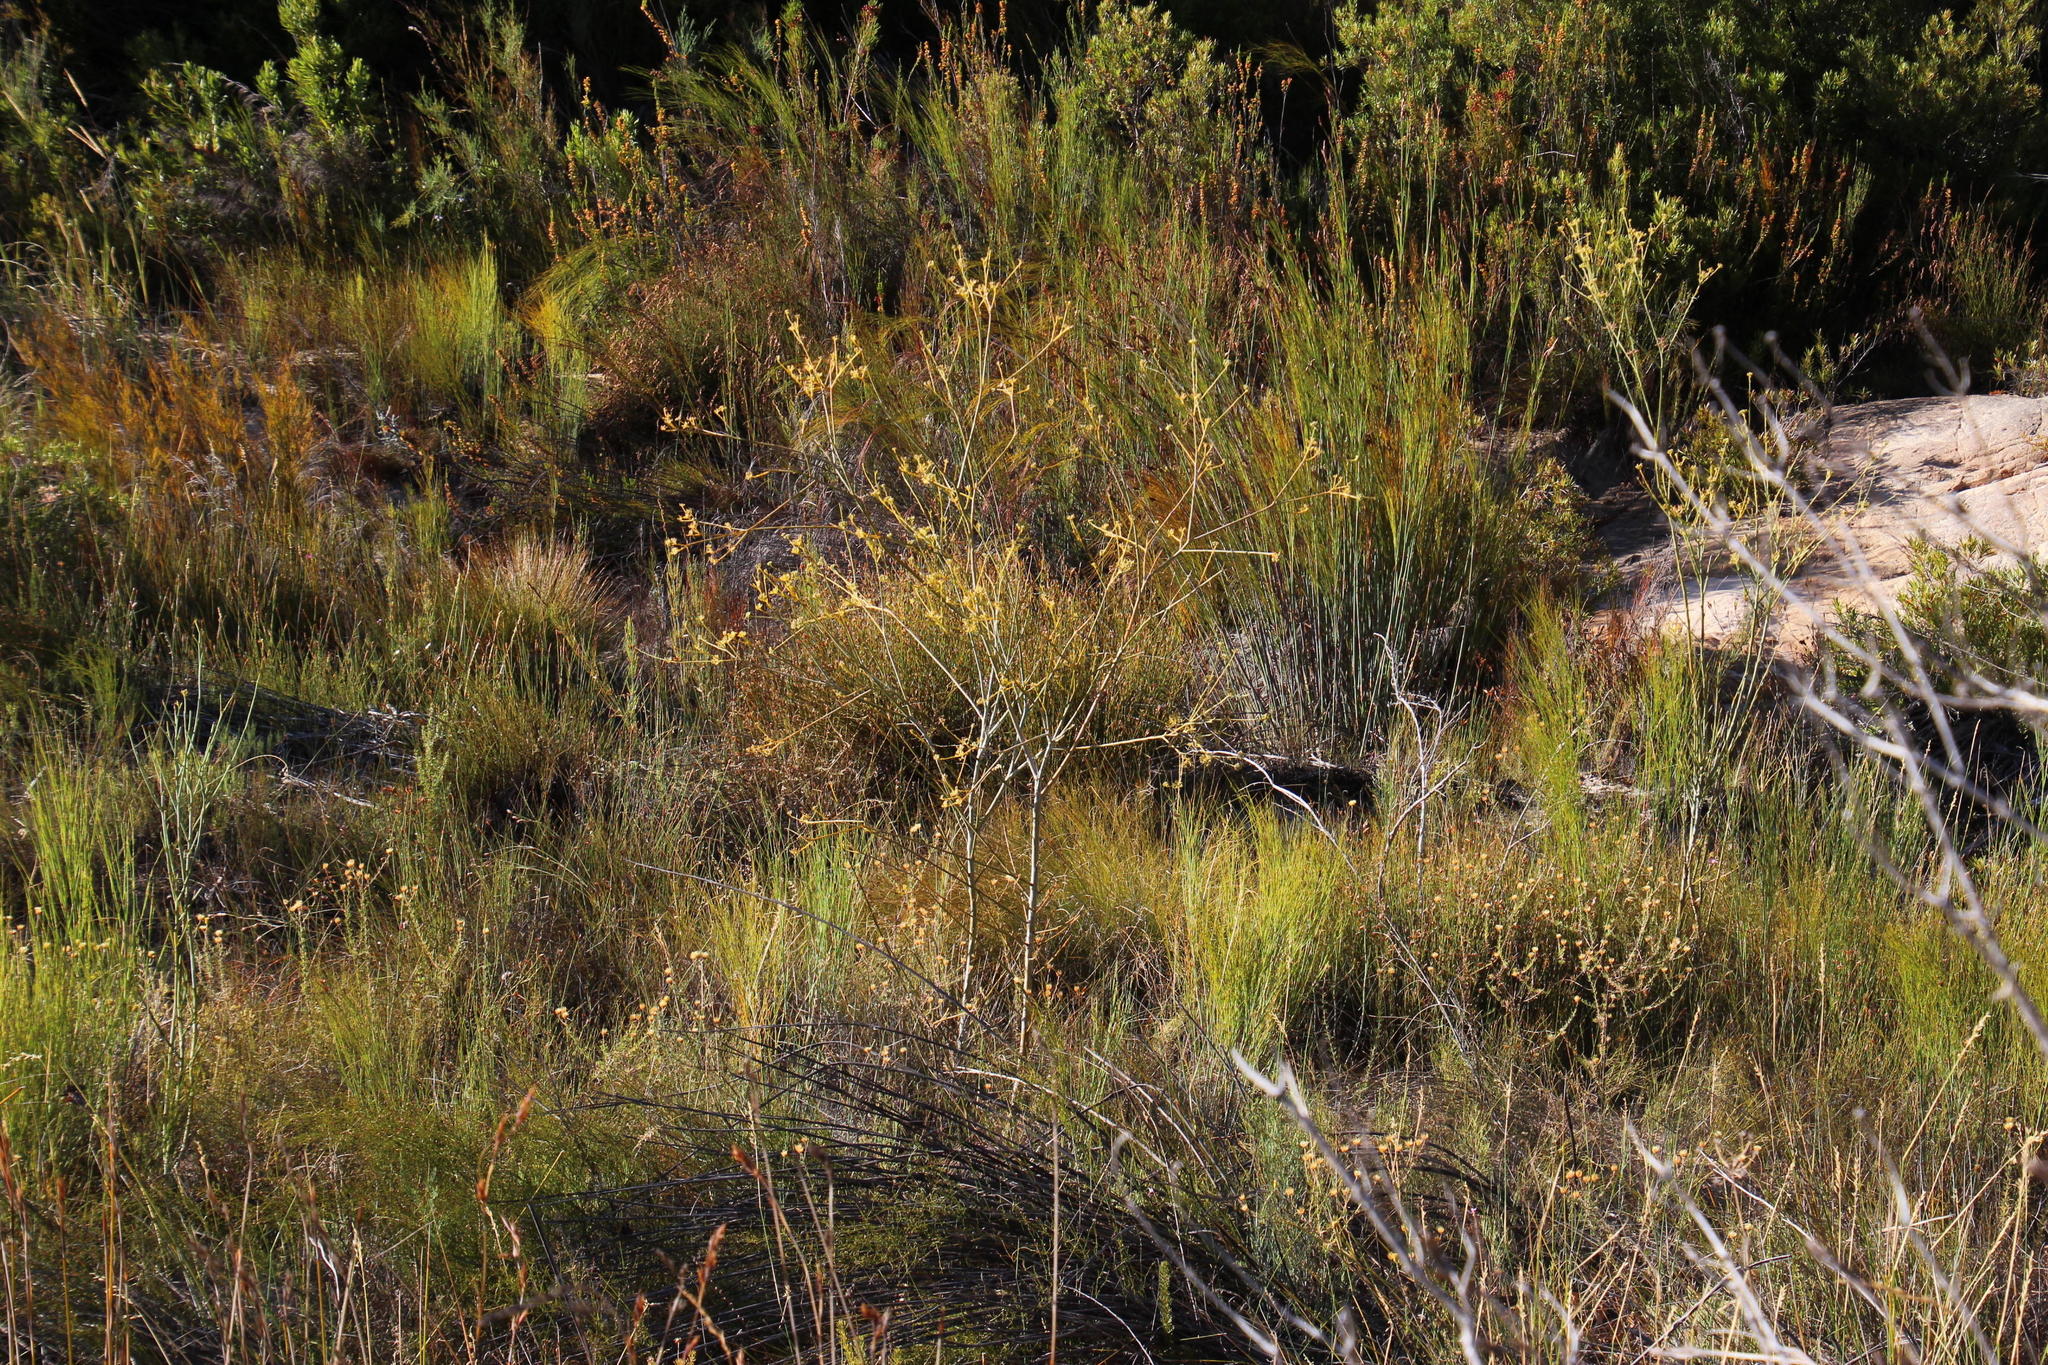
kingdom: Plantae
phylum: Tracheophyta
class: Magnoliopsida
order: Santalales
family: Thesiaceae
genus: Thesium
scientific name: Thesium strictum
